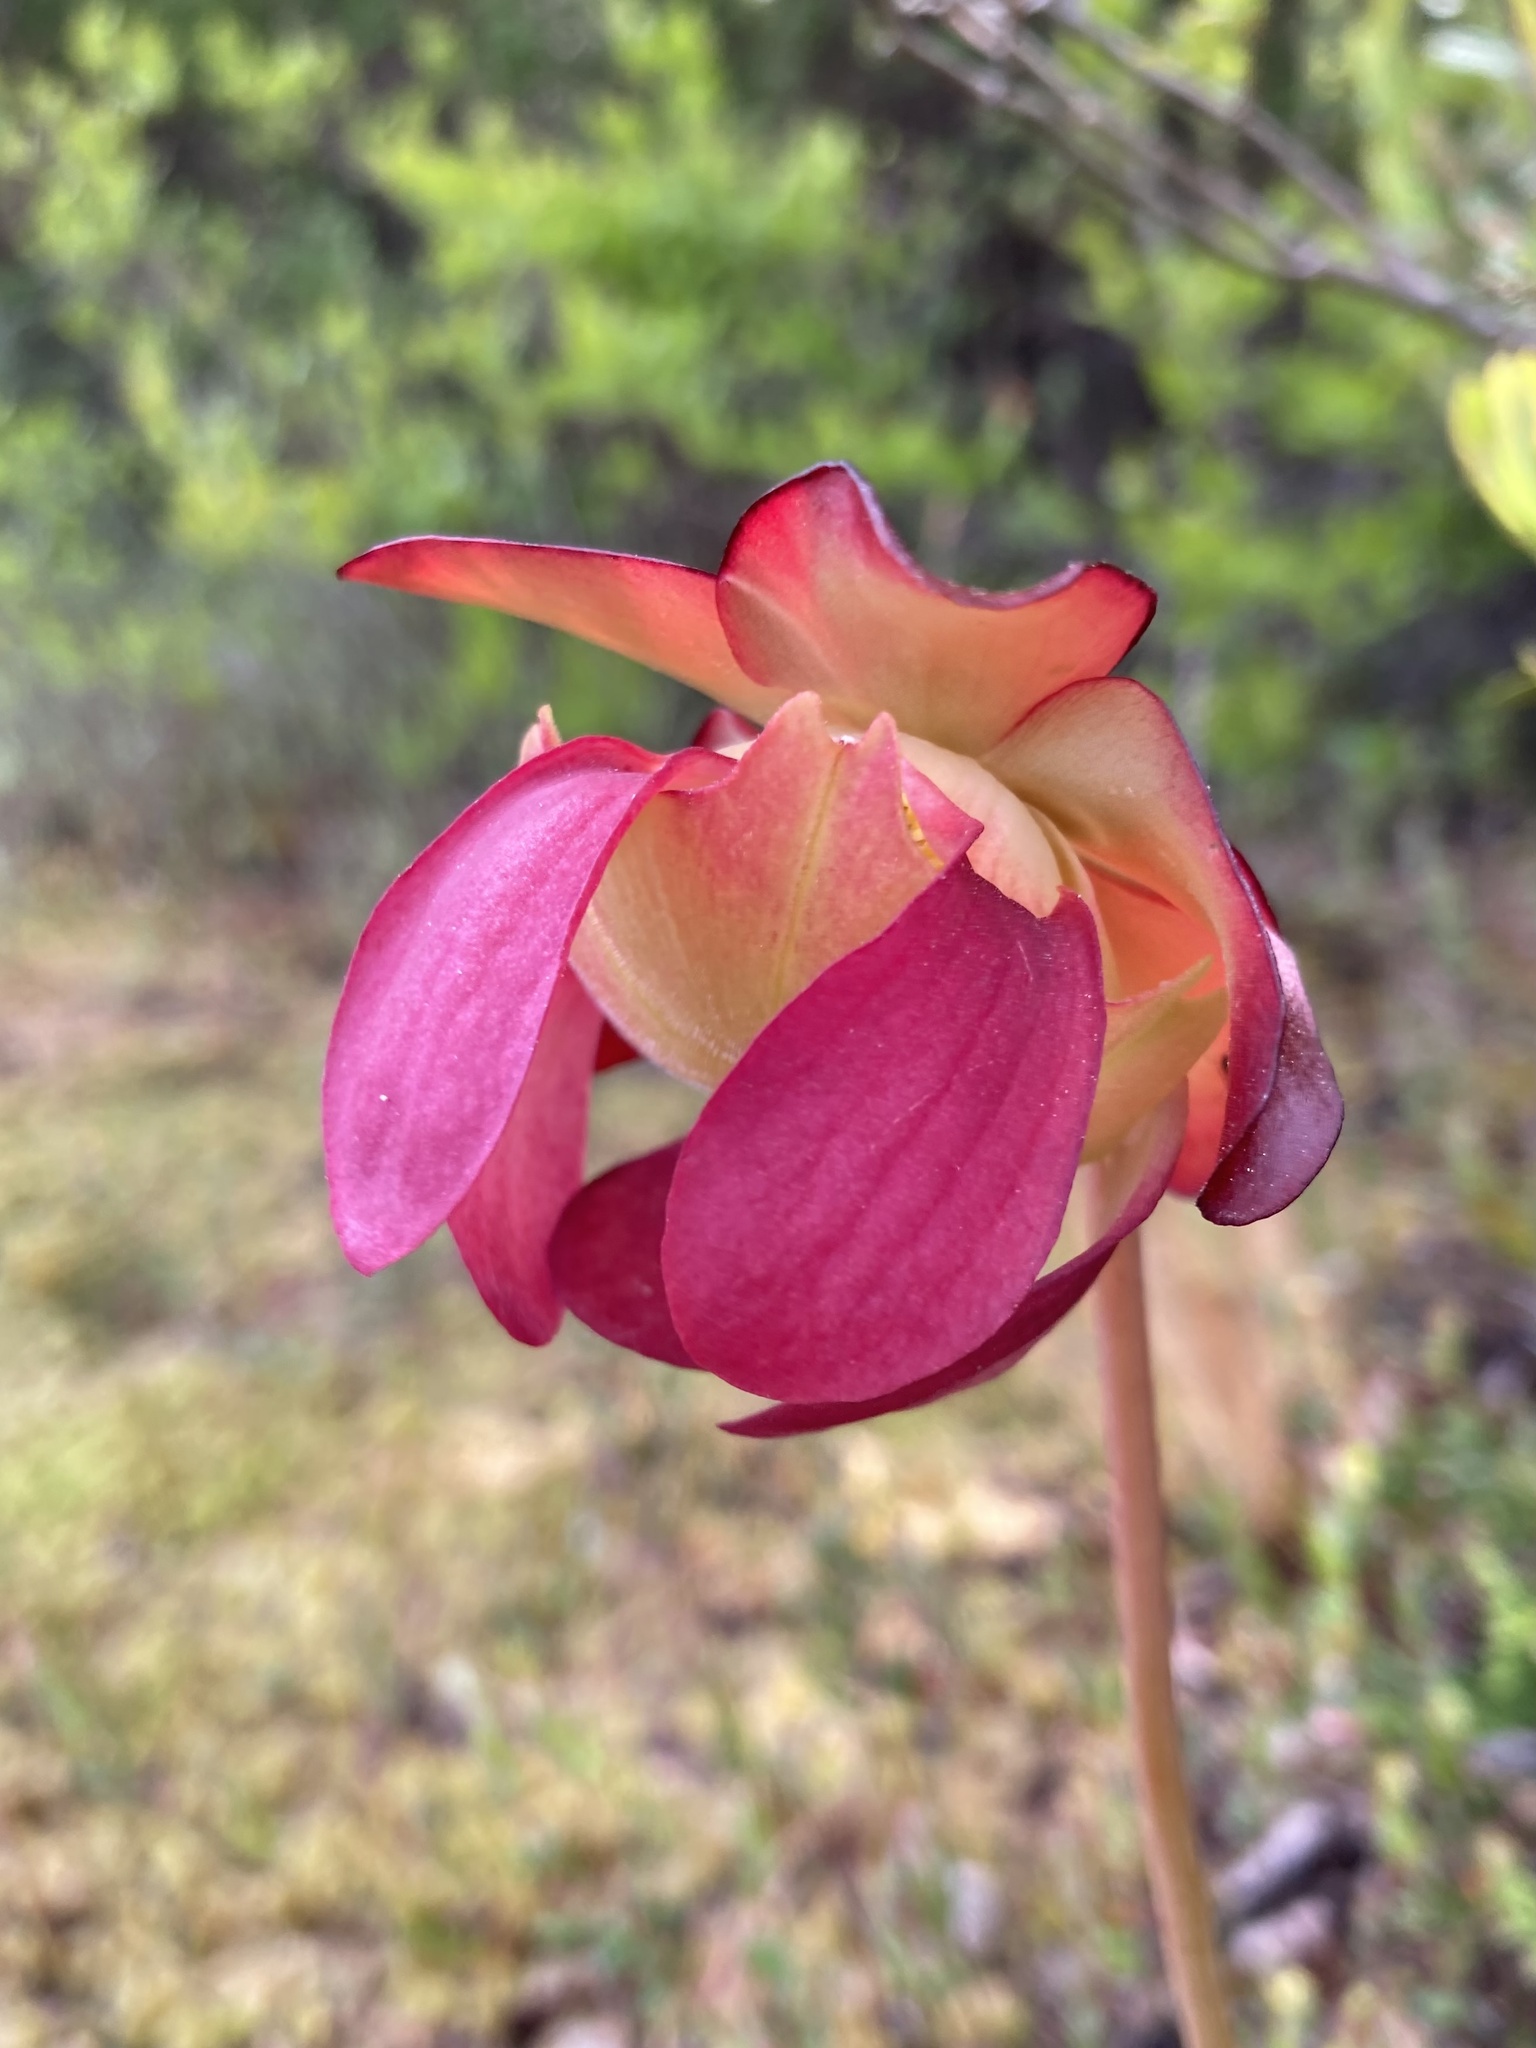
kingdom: Plantae
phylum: Tracheophyta
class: Magnoliopsida
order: Ericales
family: Sarraceniaceae
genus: Sarracenia
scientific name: Sarracenia purpurea
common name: Pitcherplant
